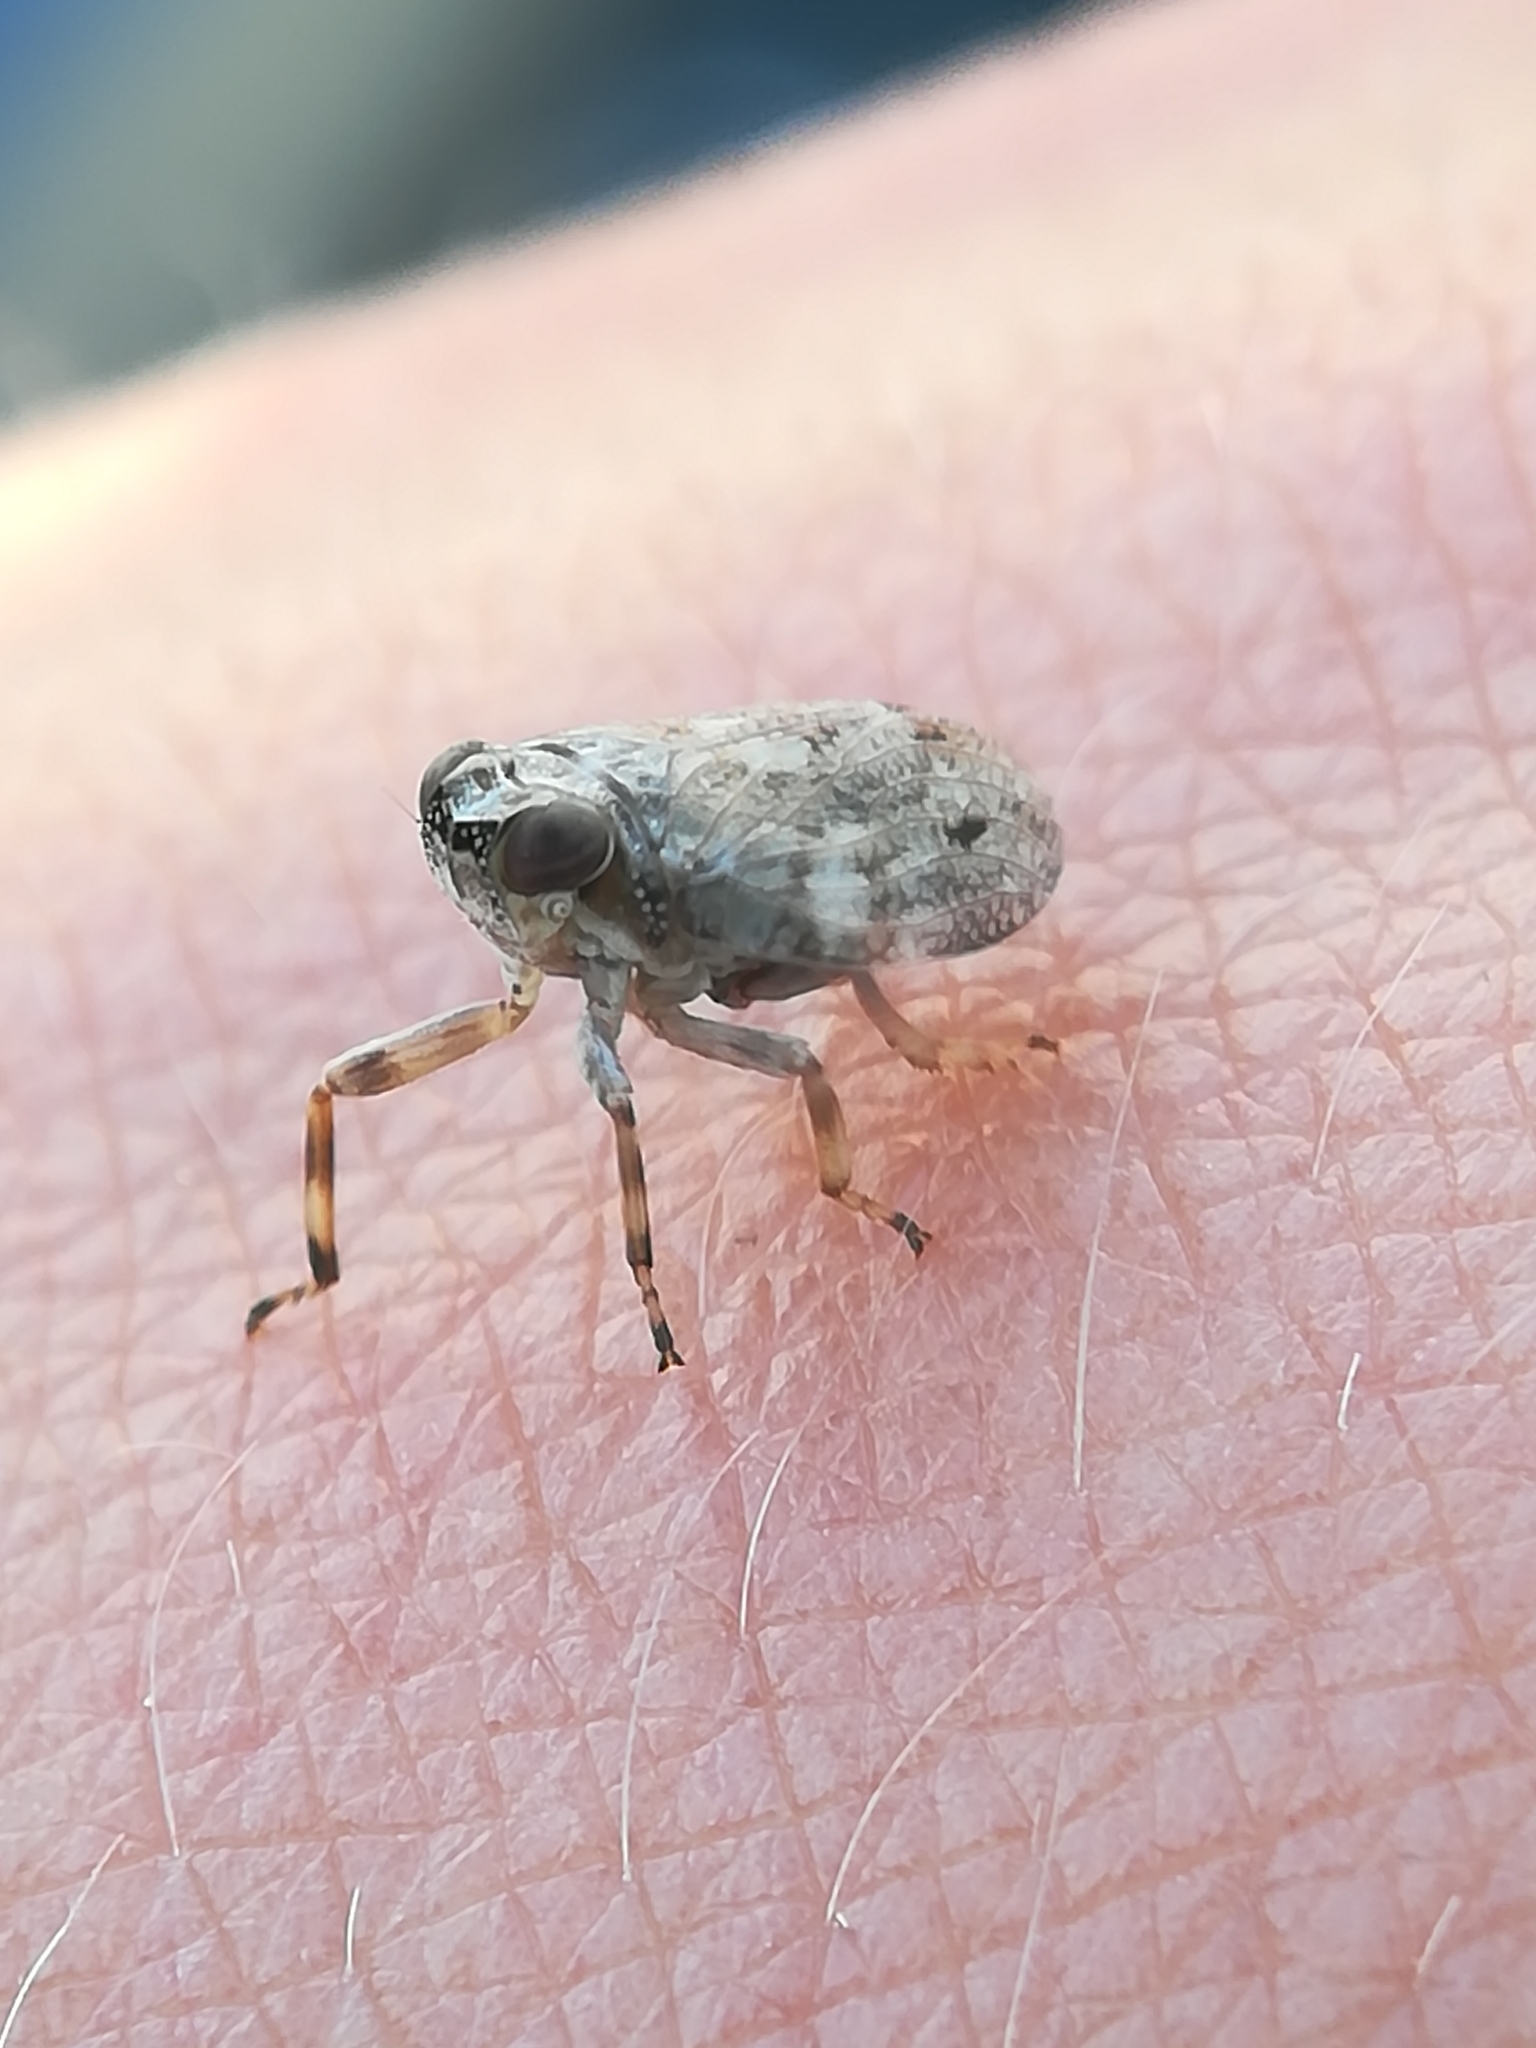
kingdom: Animalia
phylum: Arthropoda
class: Insecta
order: Hemiptera
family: Issidae
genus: Issus
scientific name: Issus coleoptratus
